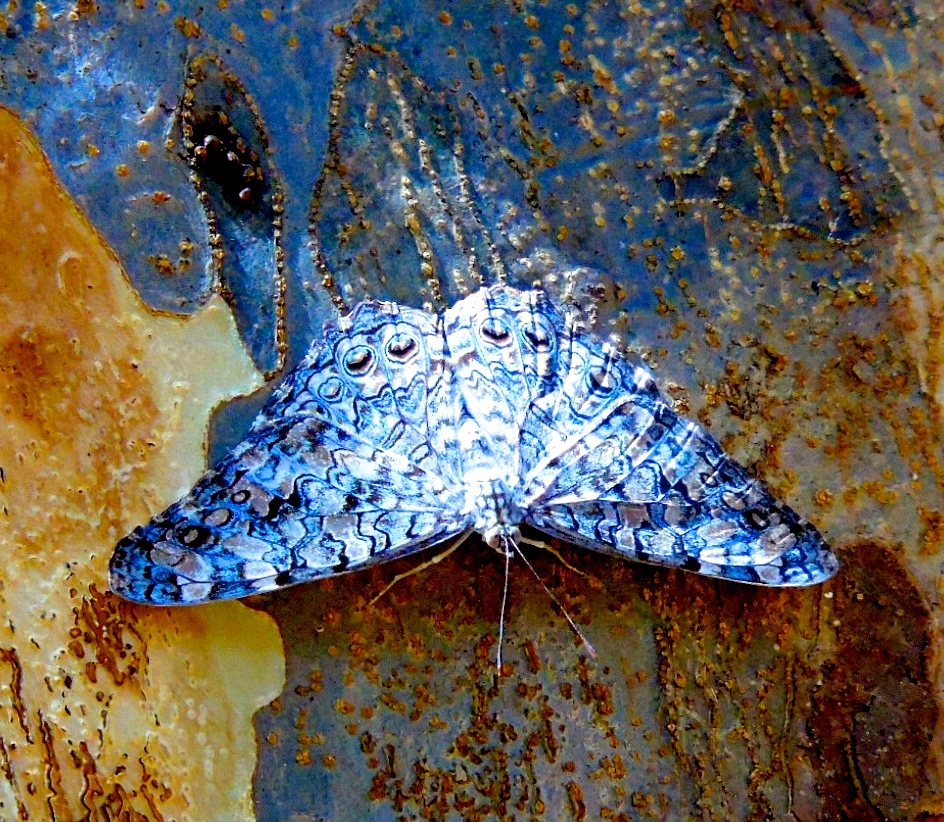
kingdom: Animalia
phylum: Arthropoda
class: Insecta
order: Lepidoptera
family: Nymphalidae
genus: Hamadryas
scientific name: Hamadryas februa
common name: Gray cracker
